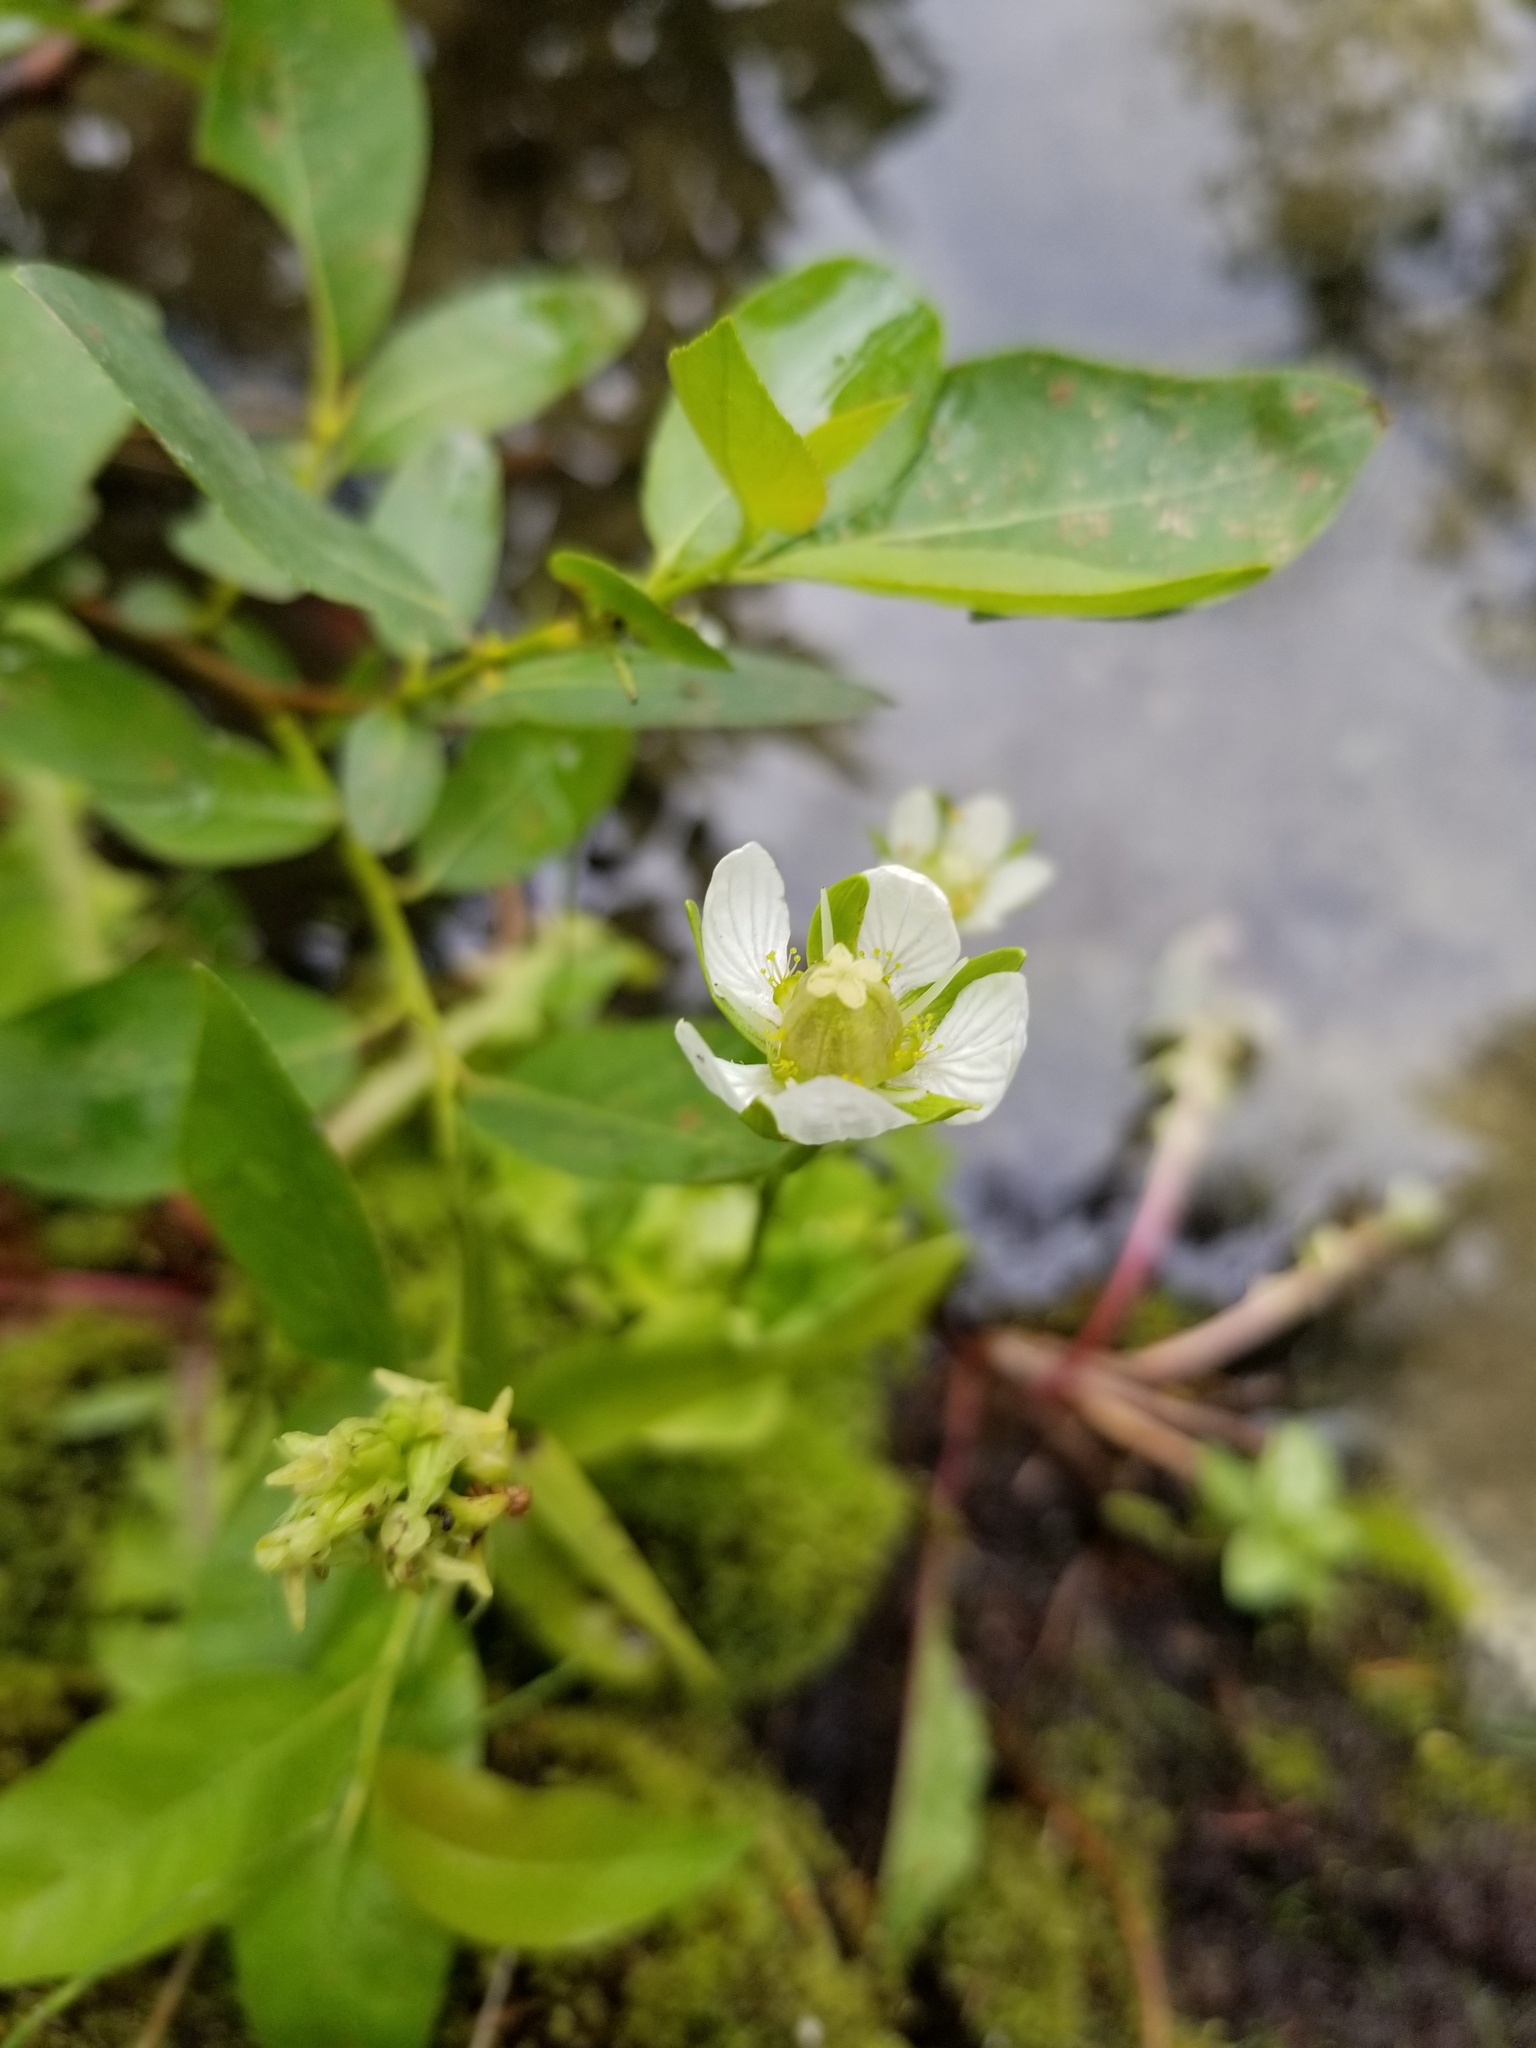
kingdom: Plantae
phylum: Tracheophyta
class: Magnoliopsida
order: Celastrales
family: Parnassiaceae
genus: Parnassia
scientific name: Parnassia palustris
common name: Grass-of-parnassus
